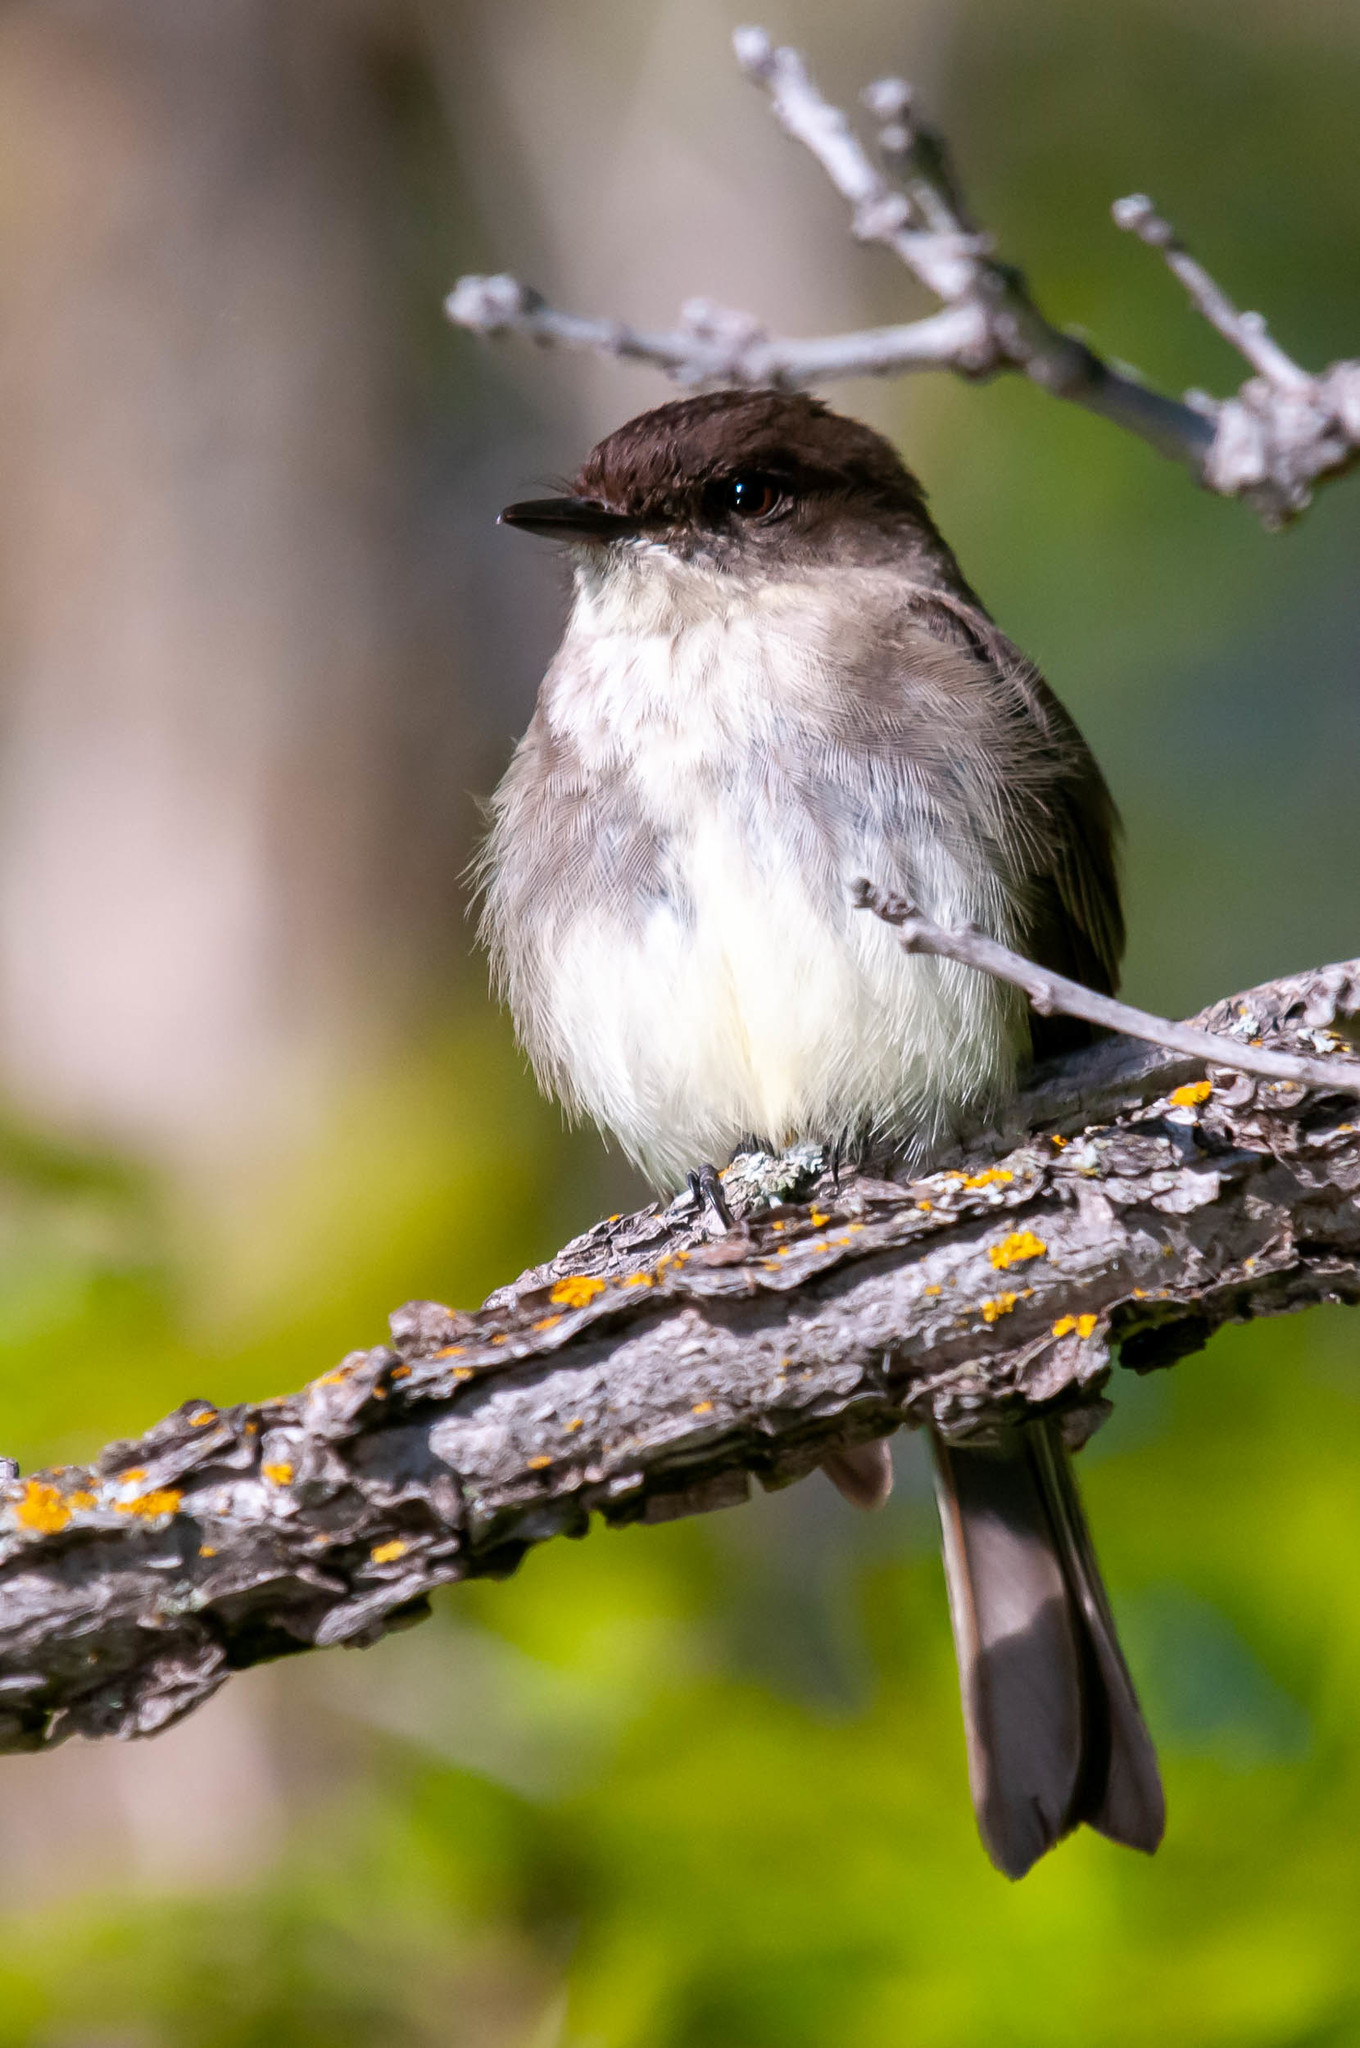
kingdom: Animalia
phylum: Chordata
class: Aves
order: Passeriformes
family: Tyrannidae
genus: Sayornis
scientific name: Sayornis phoebe
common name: Eastern phoebe
